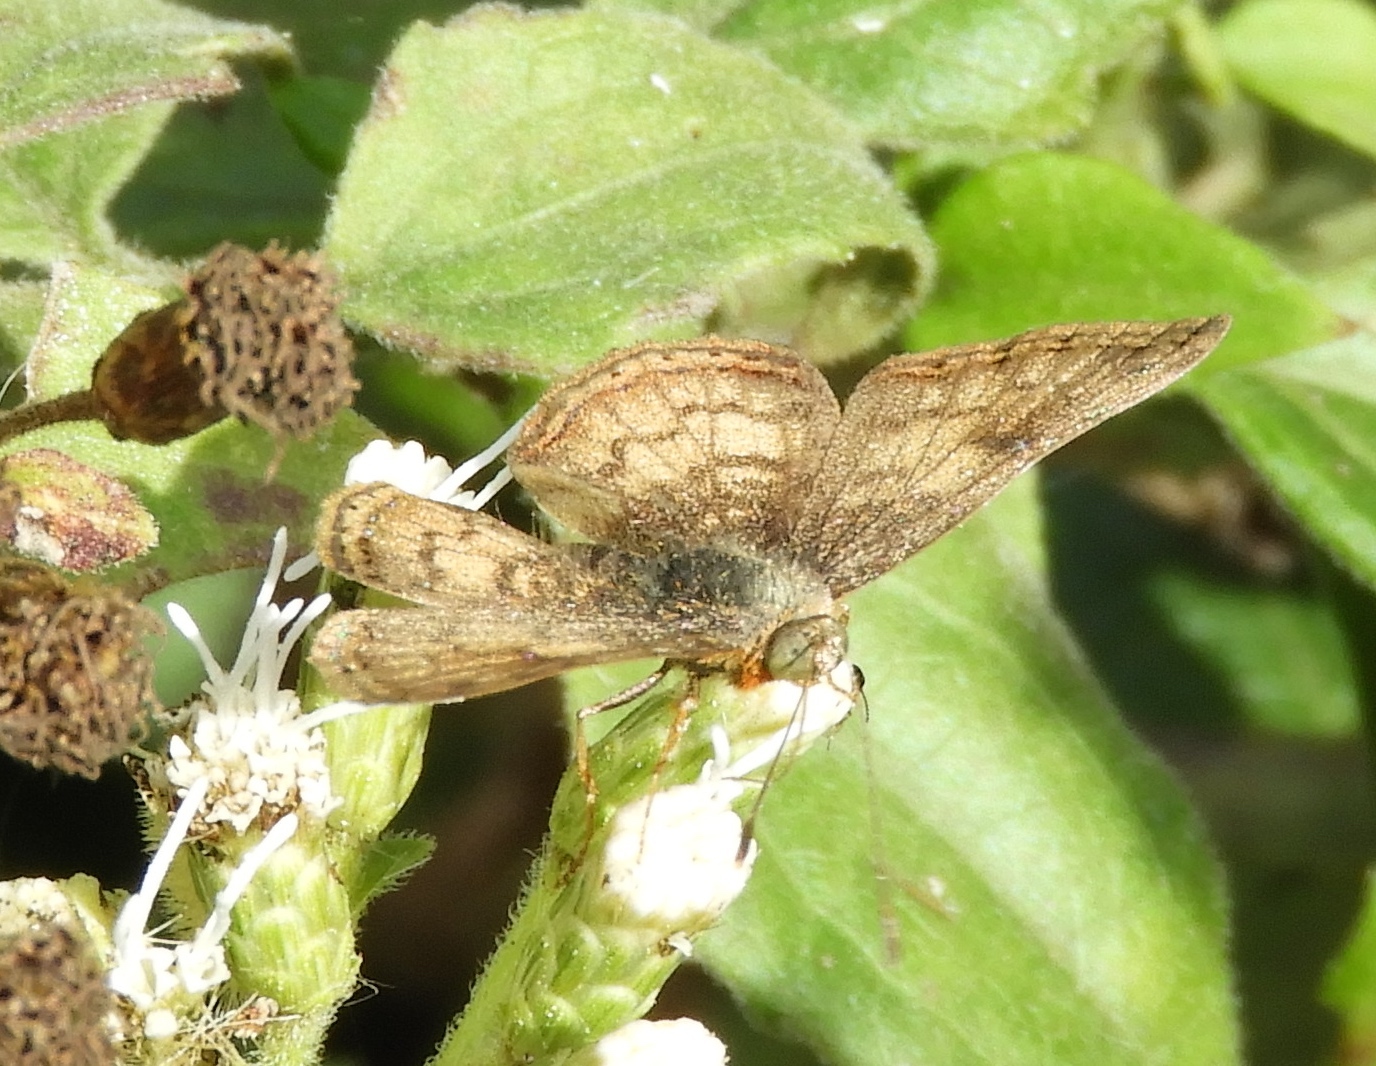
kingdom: Animalia
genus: Caria
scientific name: Caria ino
